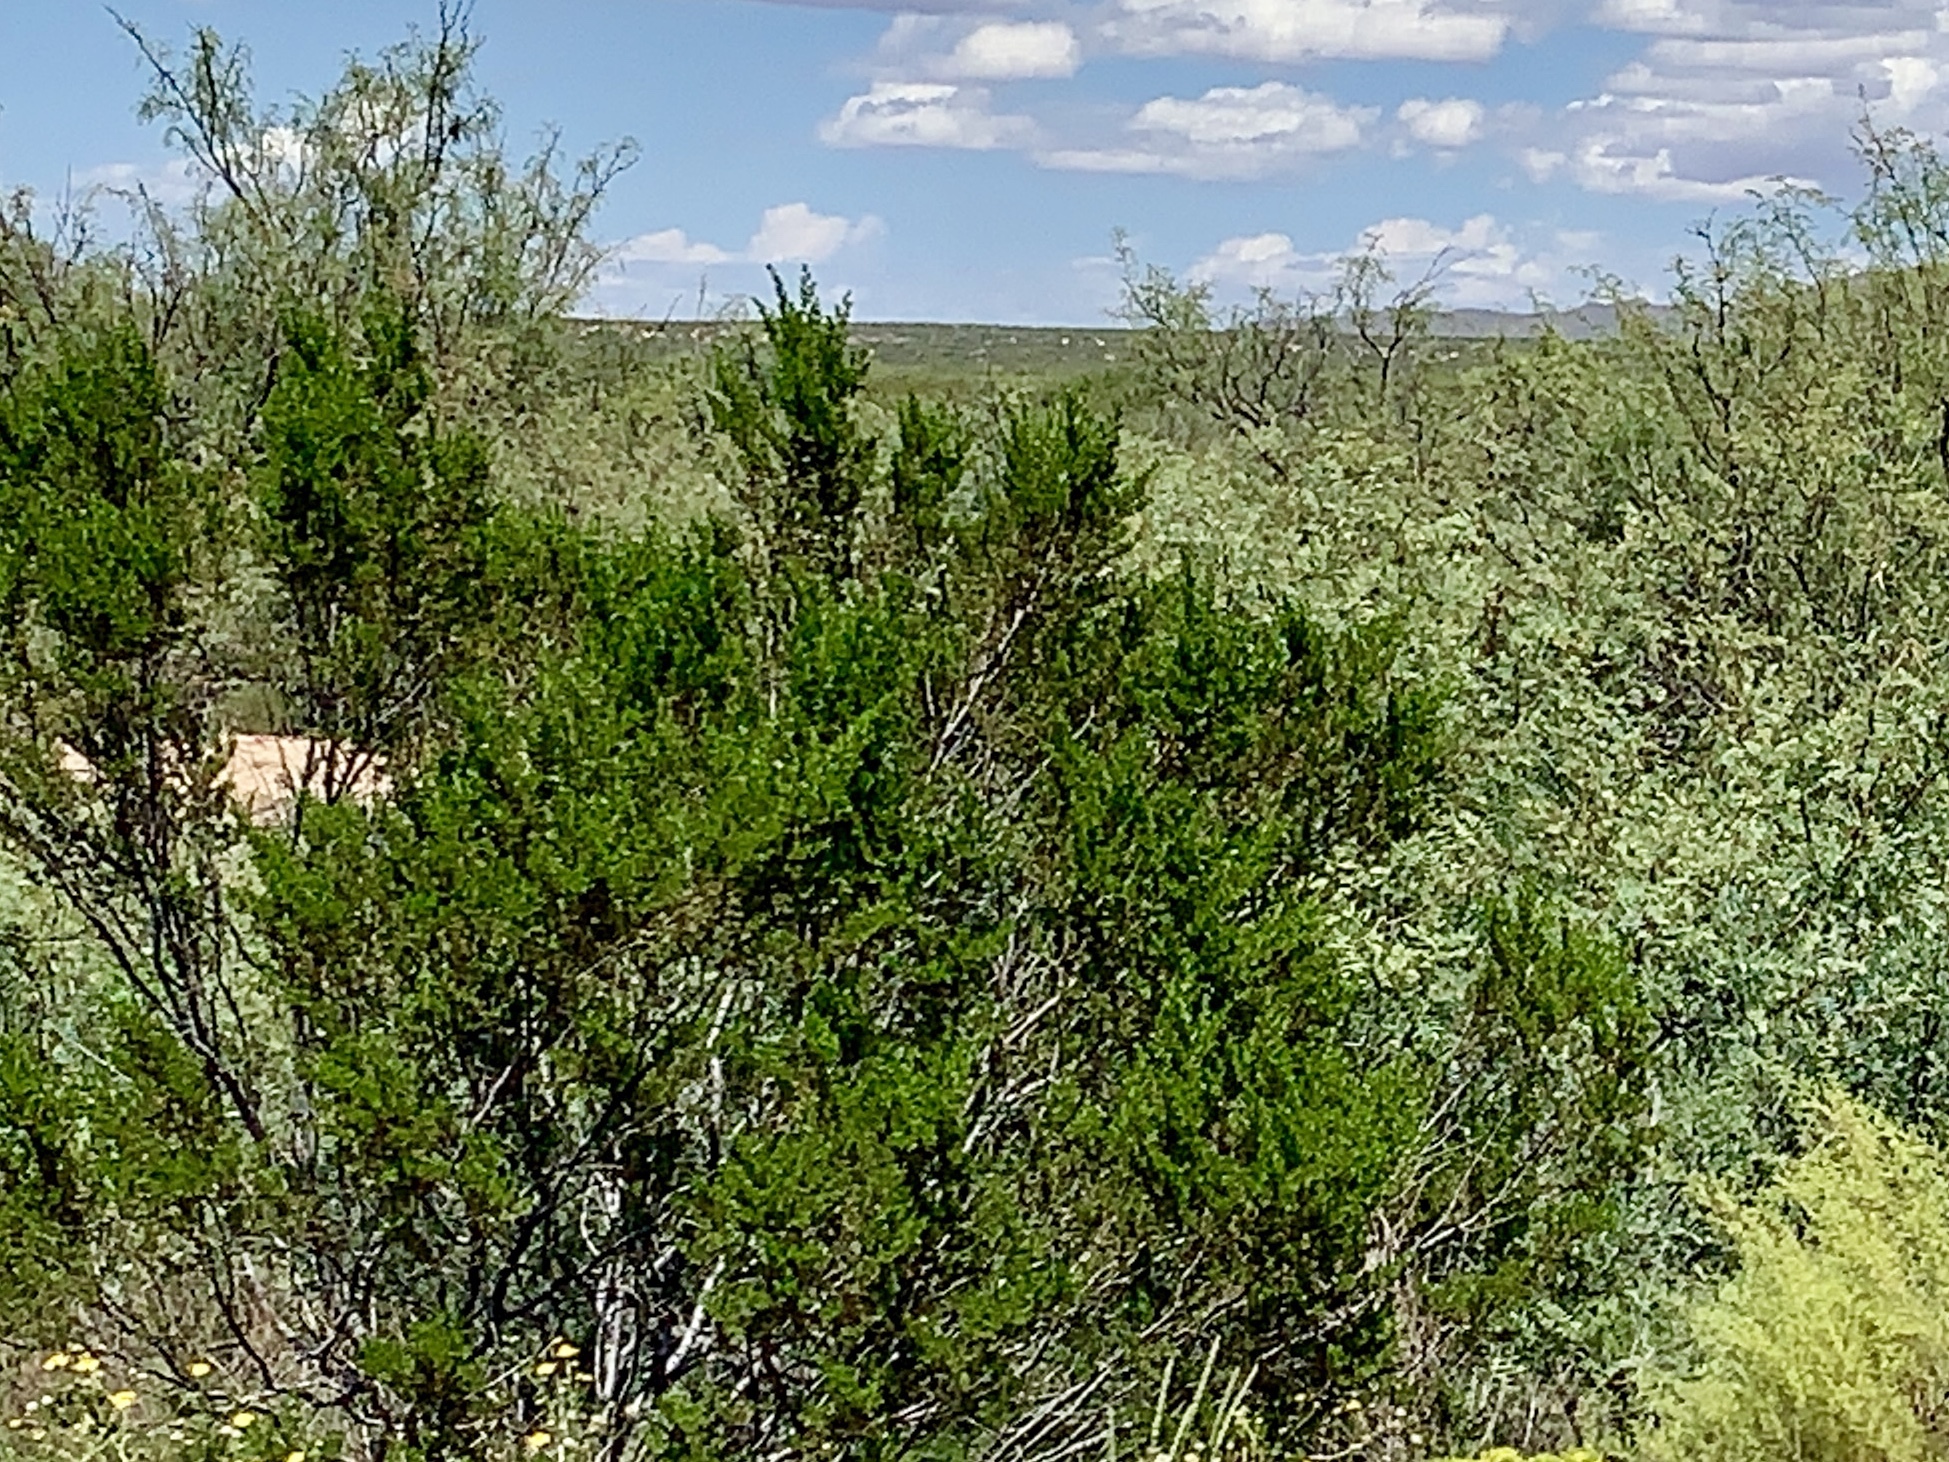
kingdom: Plantae
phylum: Tracheophyta
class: Magnoliopsida
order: Zygophyllales
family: Zygophyllaceae
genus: Larrea
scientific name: Larrea tridentata
